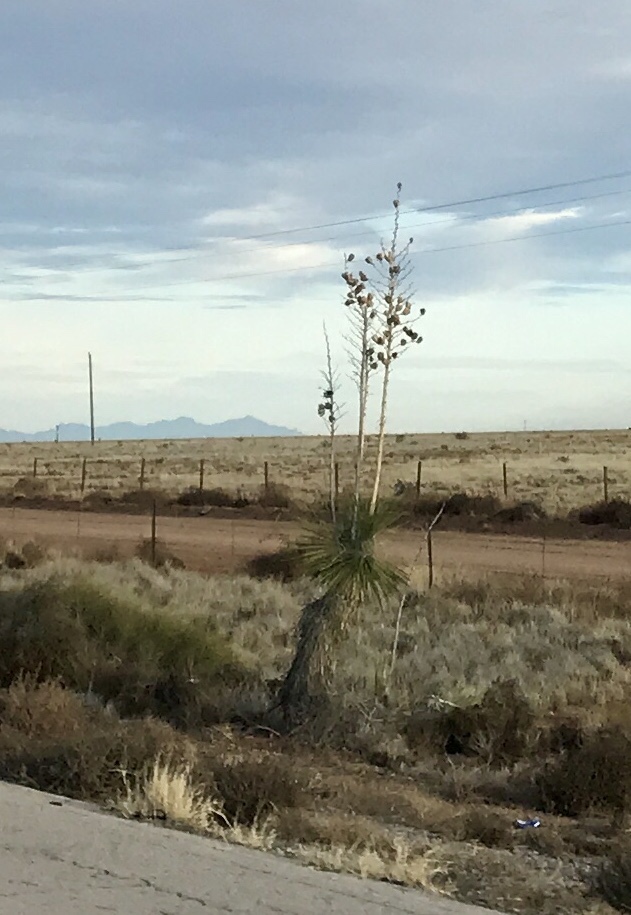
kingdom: Plantae
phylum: Tracheophyta
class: Liliopsida
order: Asparagales
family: Asparagaceae
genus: Yucca
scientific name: Yucca elata
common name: Palmella
